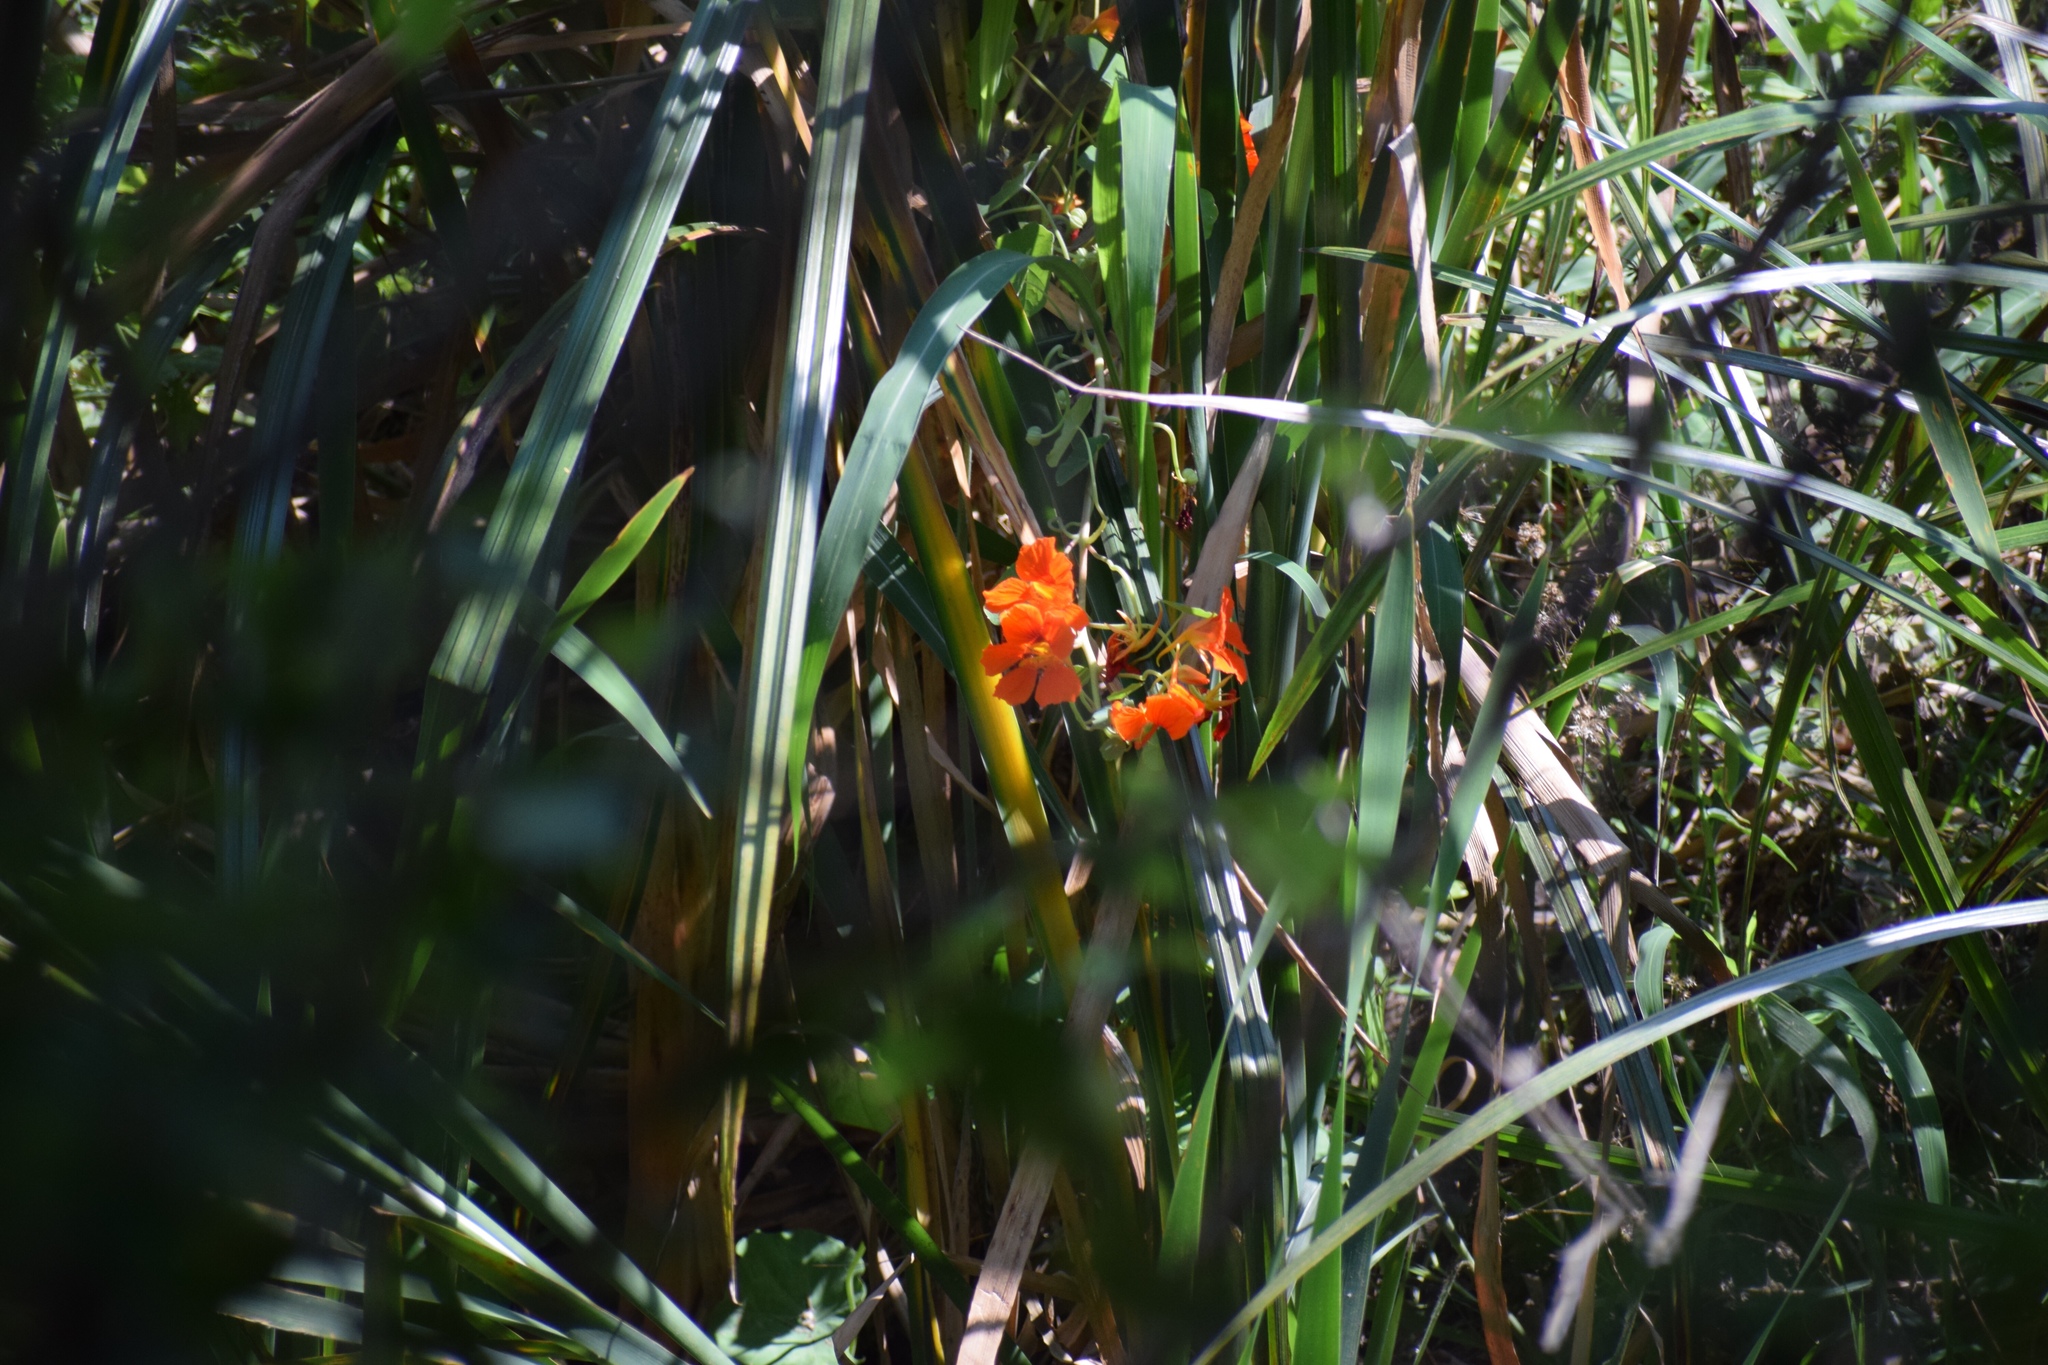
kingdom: Plantae
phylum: Tracheophyta
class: Magnoliopsida
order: Brassicales
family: Tropaeolaceae
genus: Tropaeolum
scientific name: Tropaeolum majus
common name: Nasturtium
